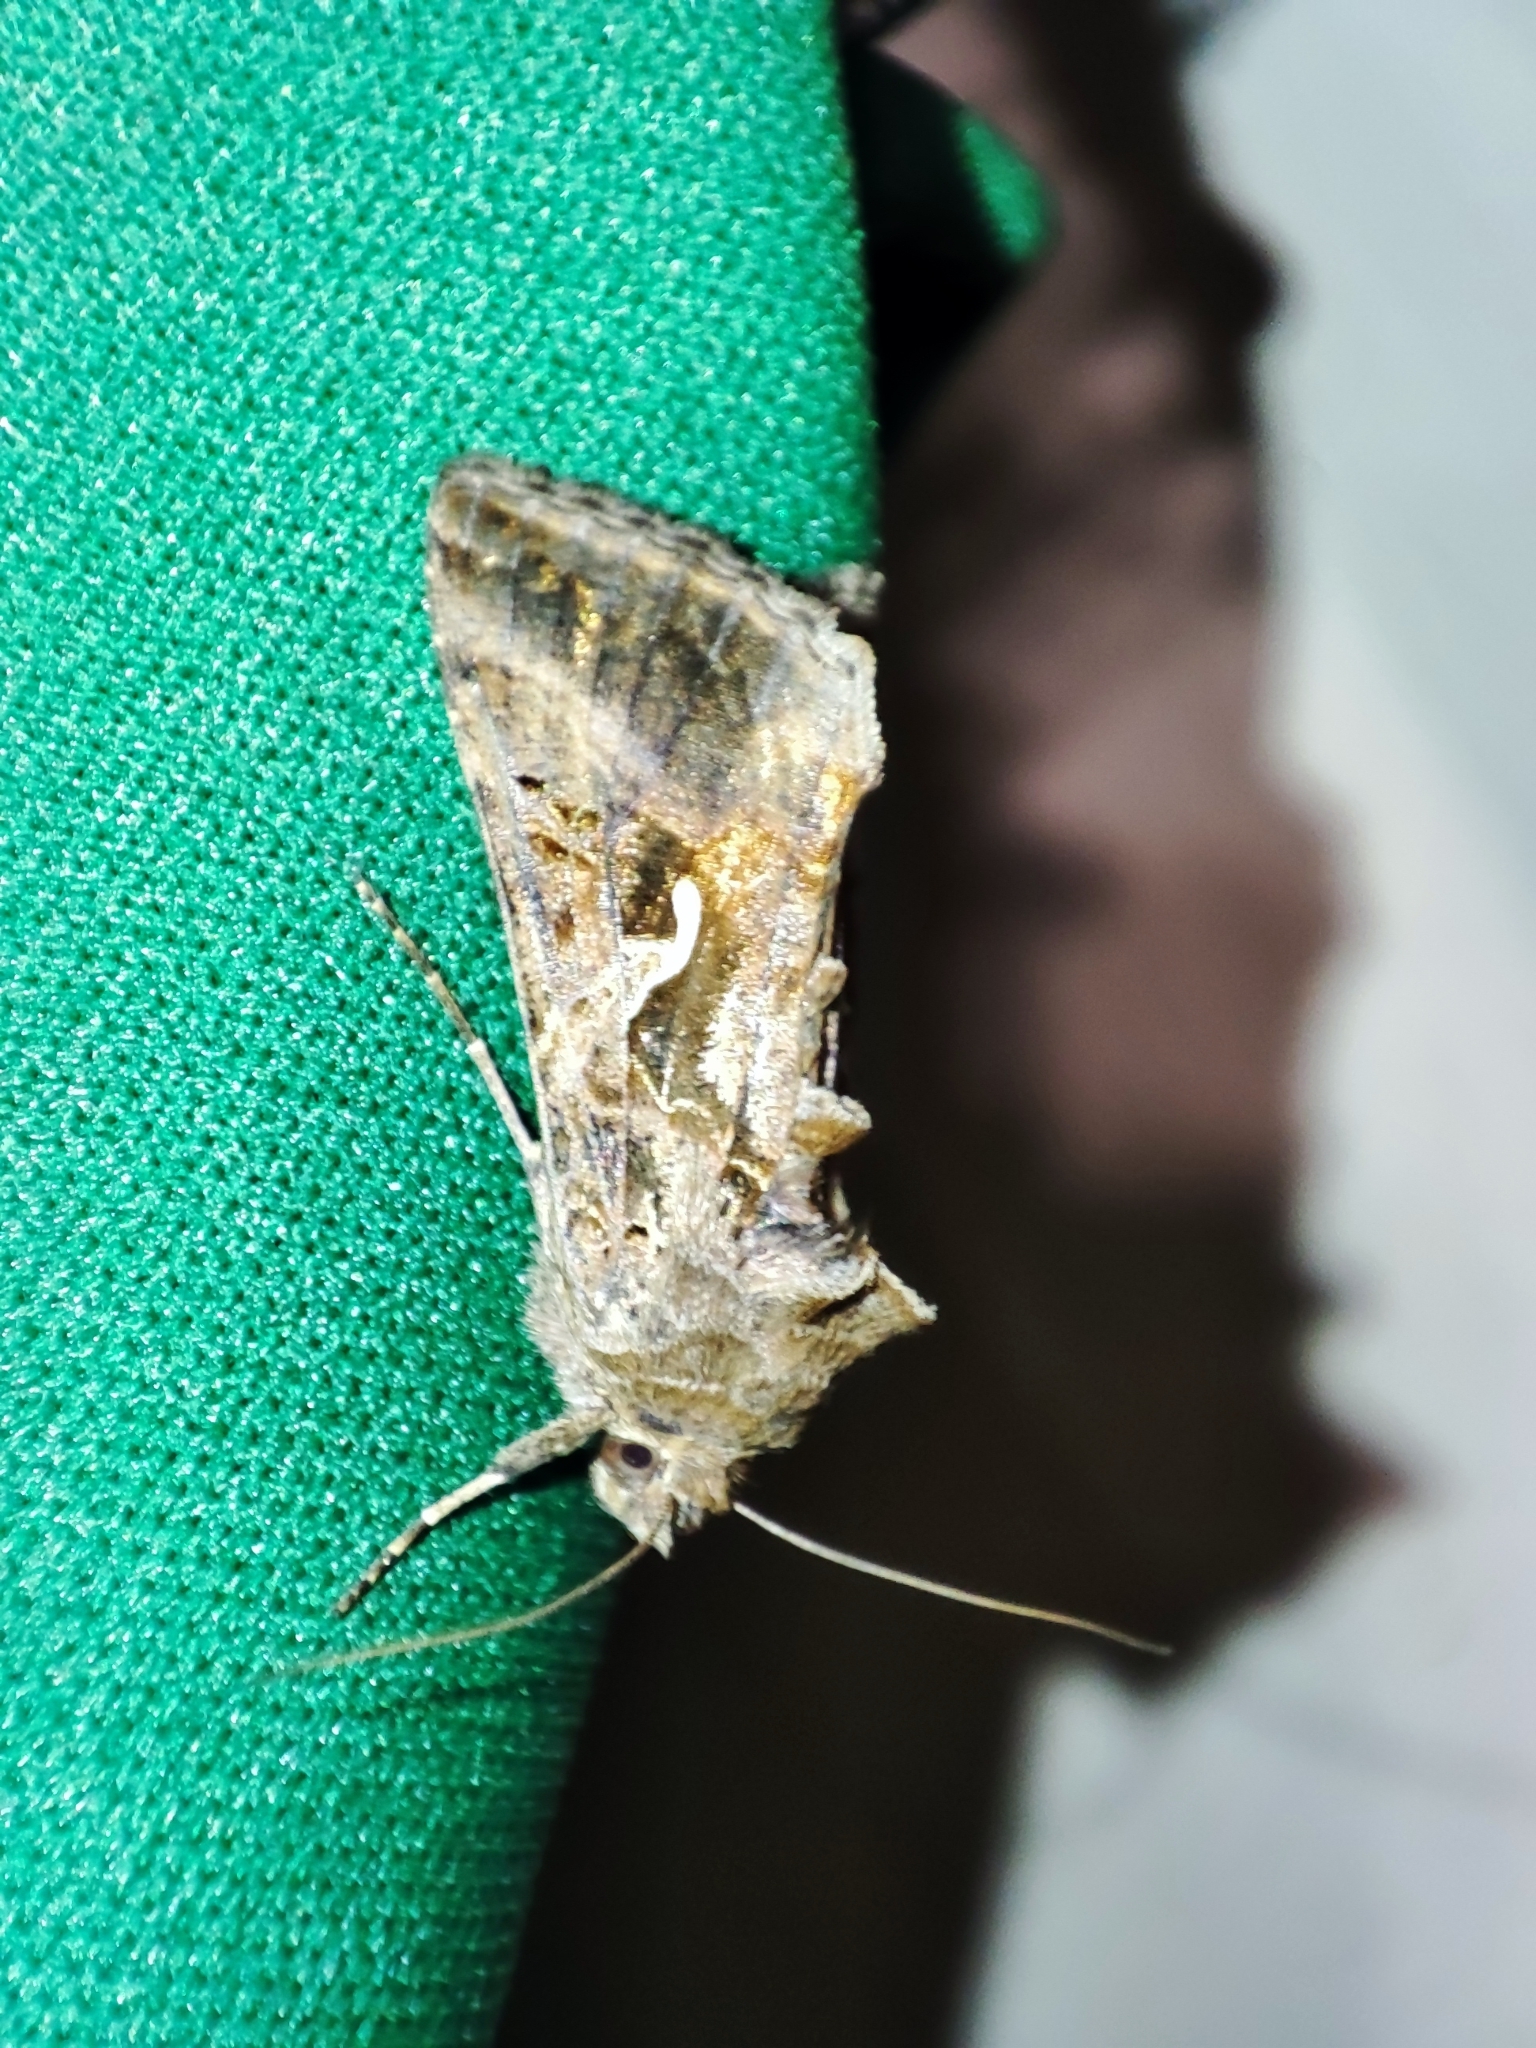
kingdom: Animalia
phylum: Arthropoda
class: Insecta
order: Lepidoptera
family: Noctuidae
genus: Autographa
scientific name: Autographa gamma
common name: Silver y
